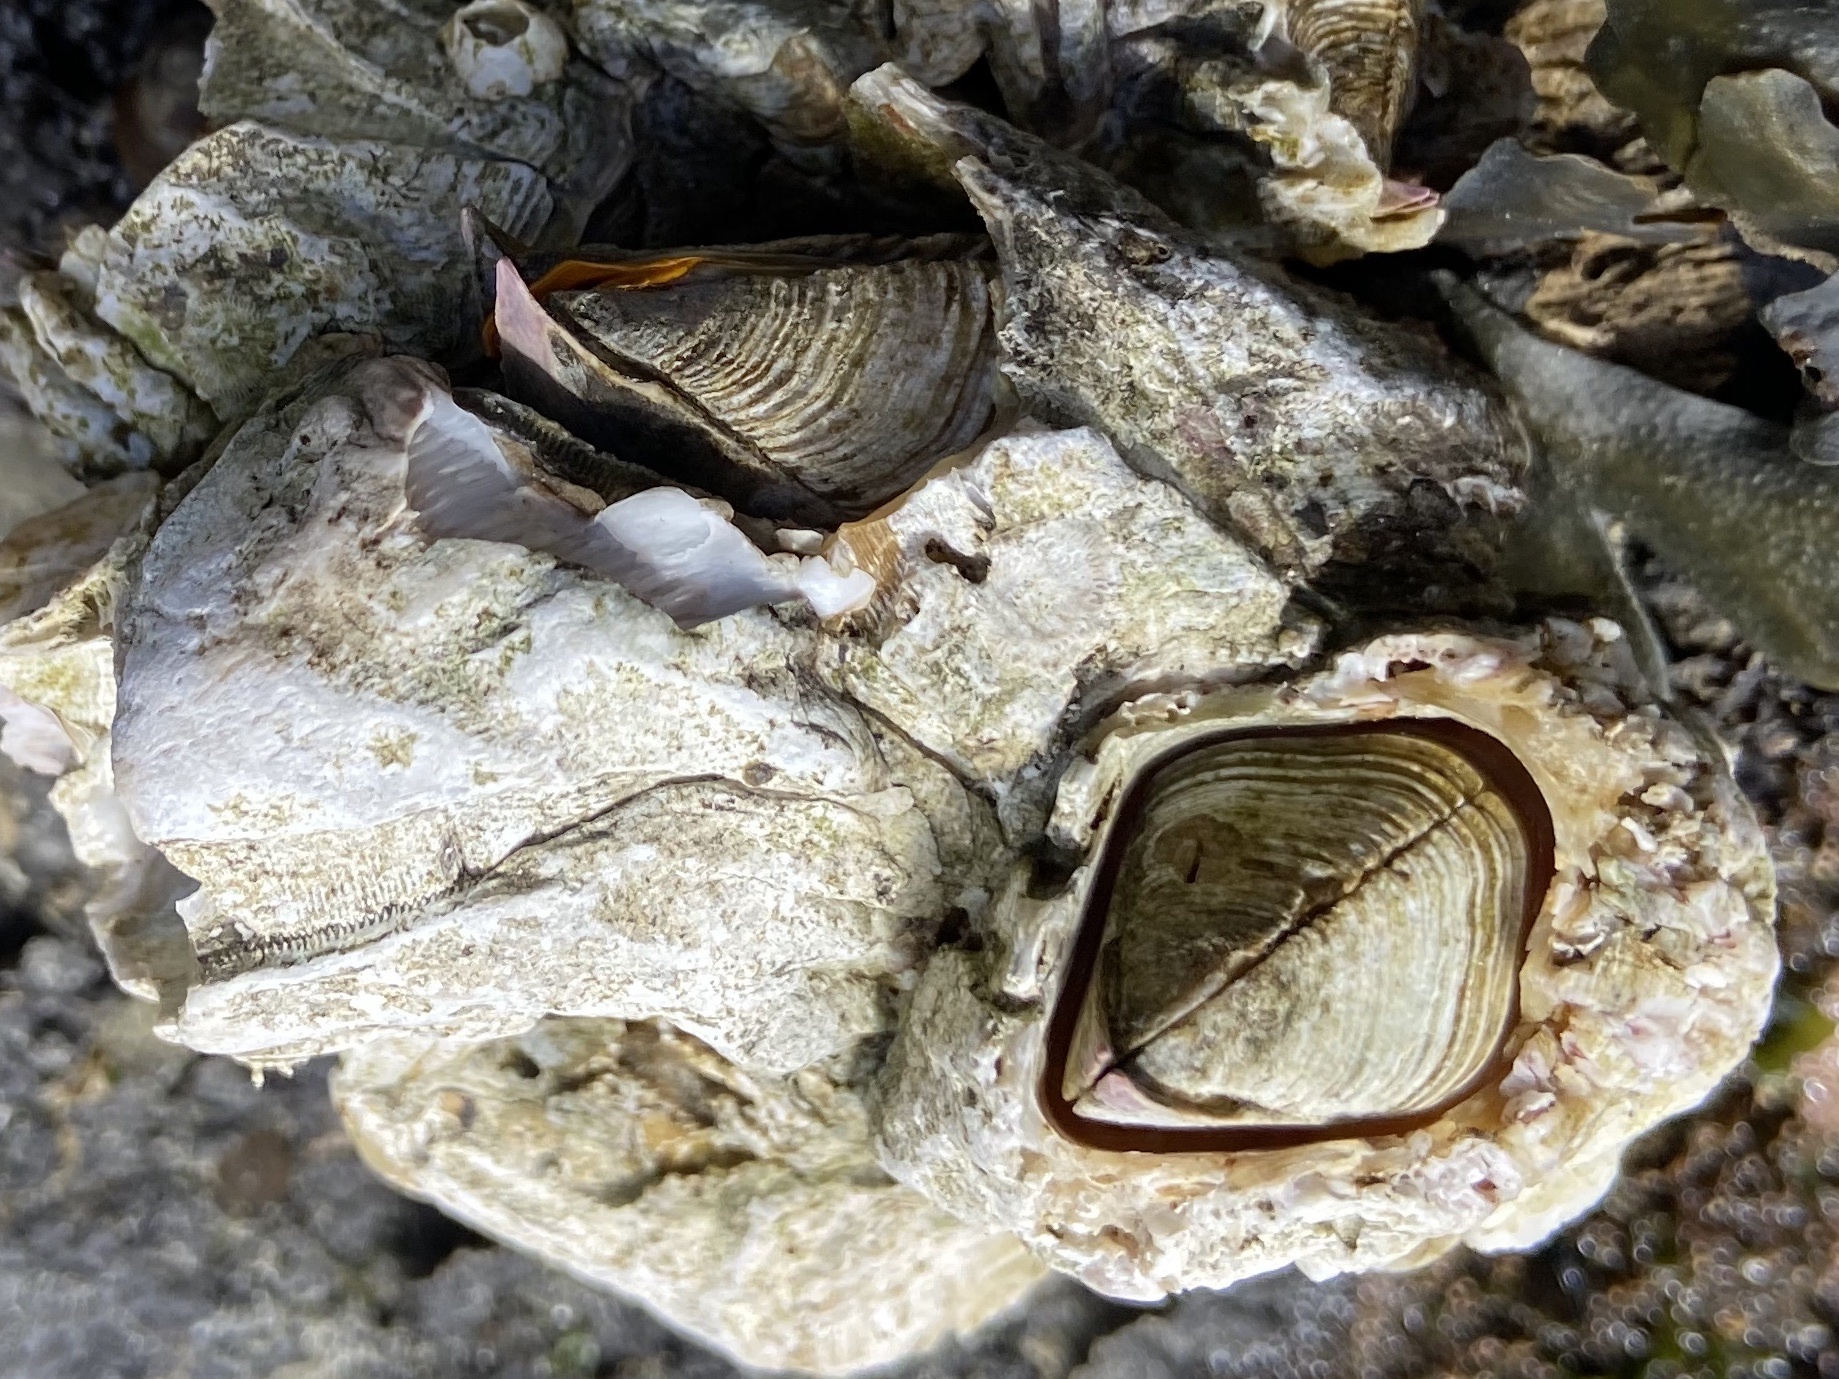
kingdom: Animalia
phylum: Arthropoda
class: Maxillopoda
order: Sessilia
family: Balanidae
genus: Balanus
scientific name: Balanus nubilus
